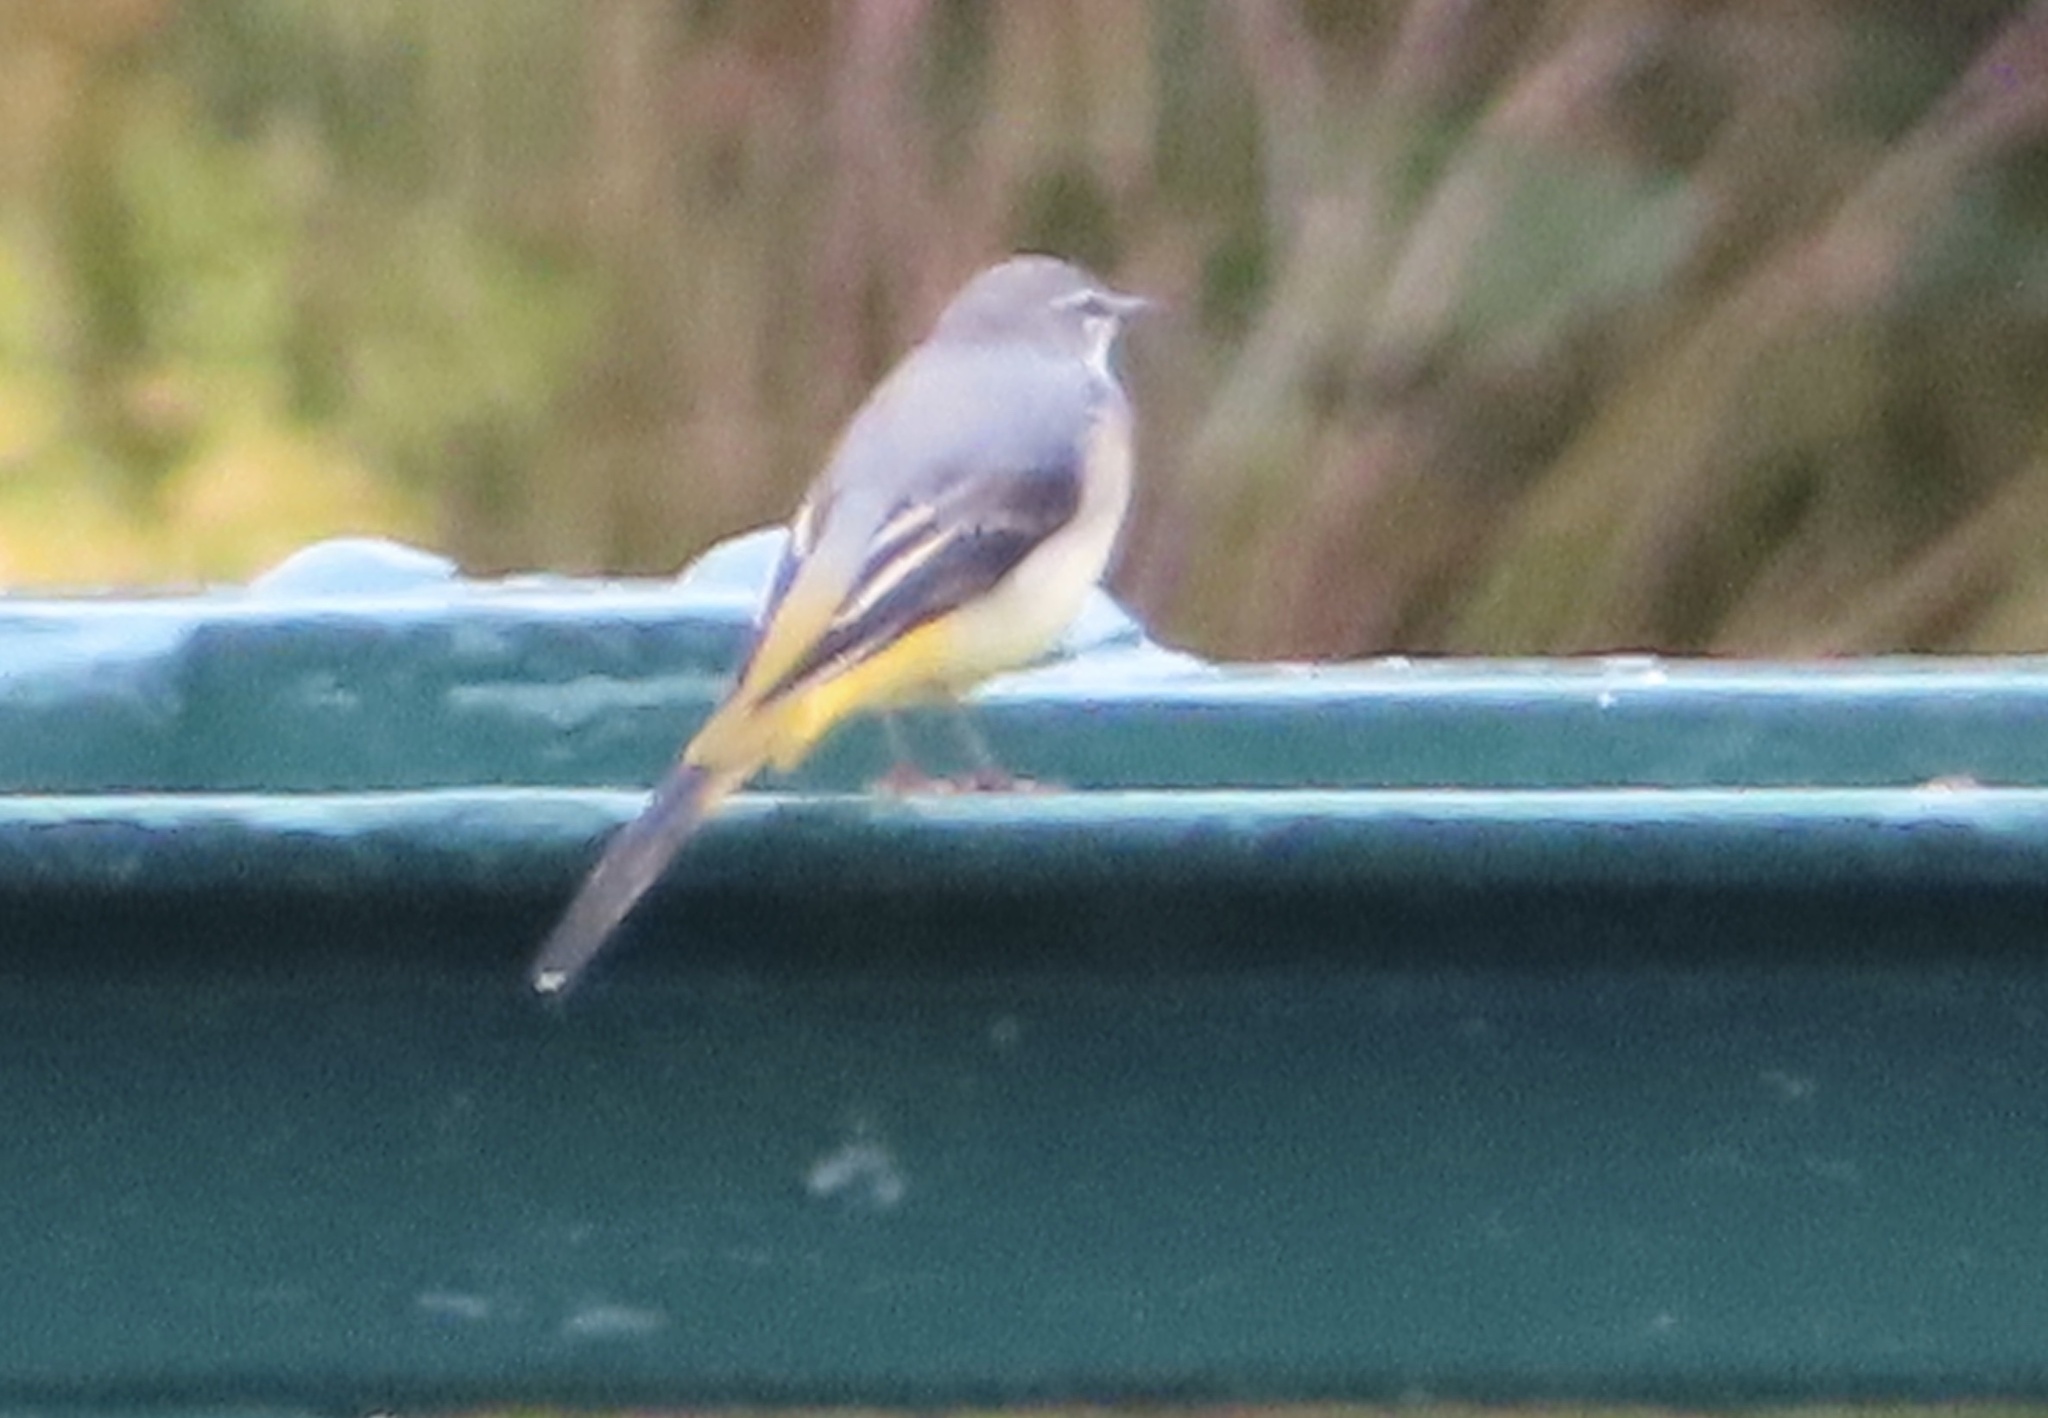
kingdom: Animalia
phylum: Chordata
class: Aves
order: Passeriformes
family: Motacillidae
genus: Motacilla
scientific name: Motacilla cinerea
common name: Grey wagtail
